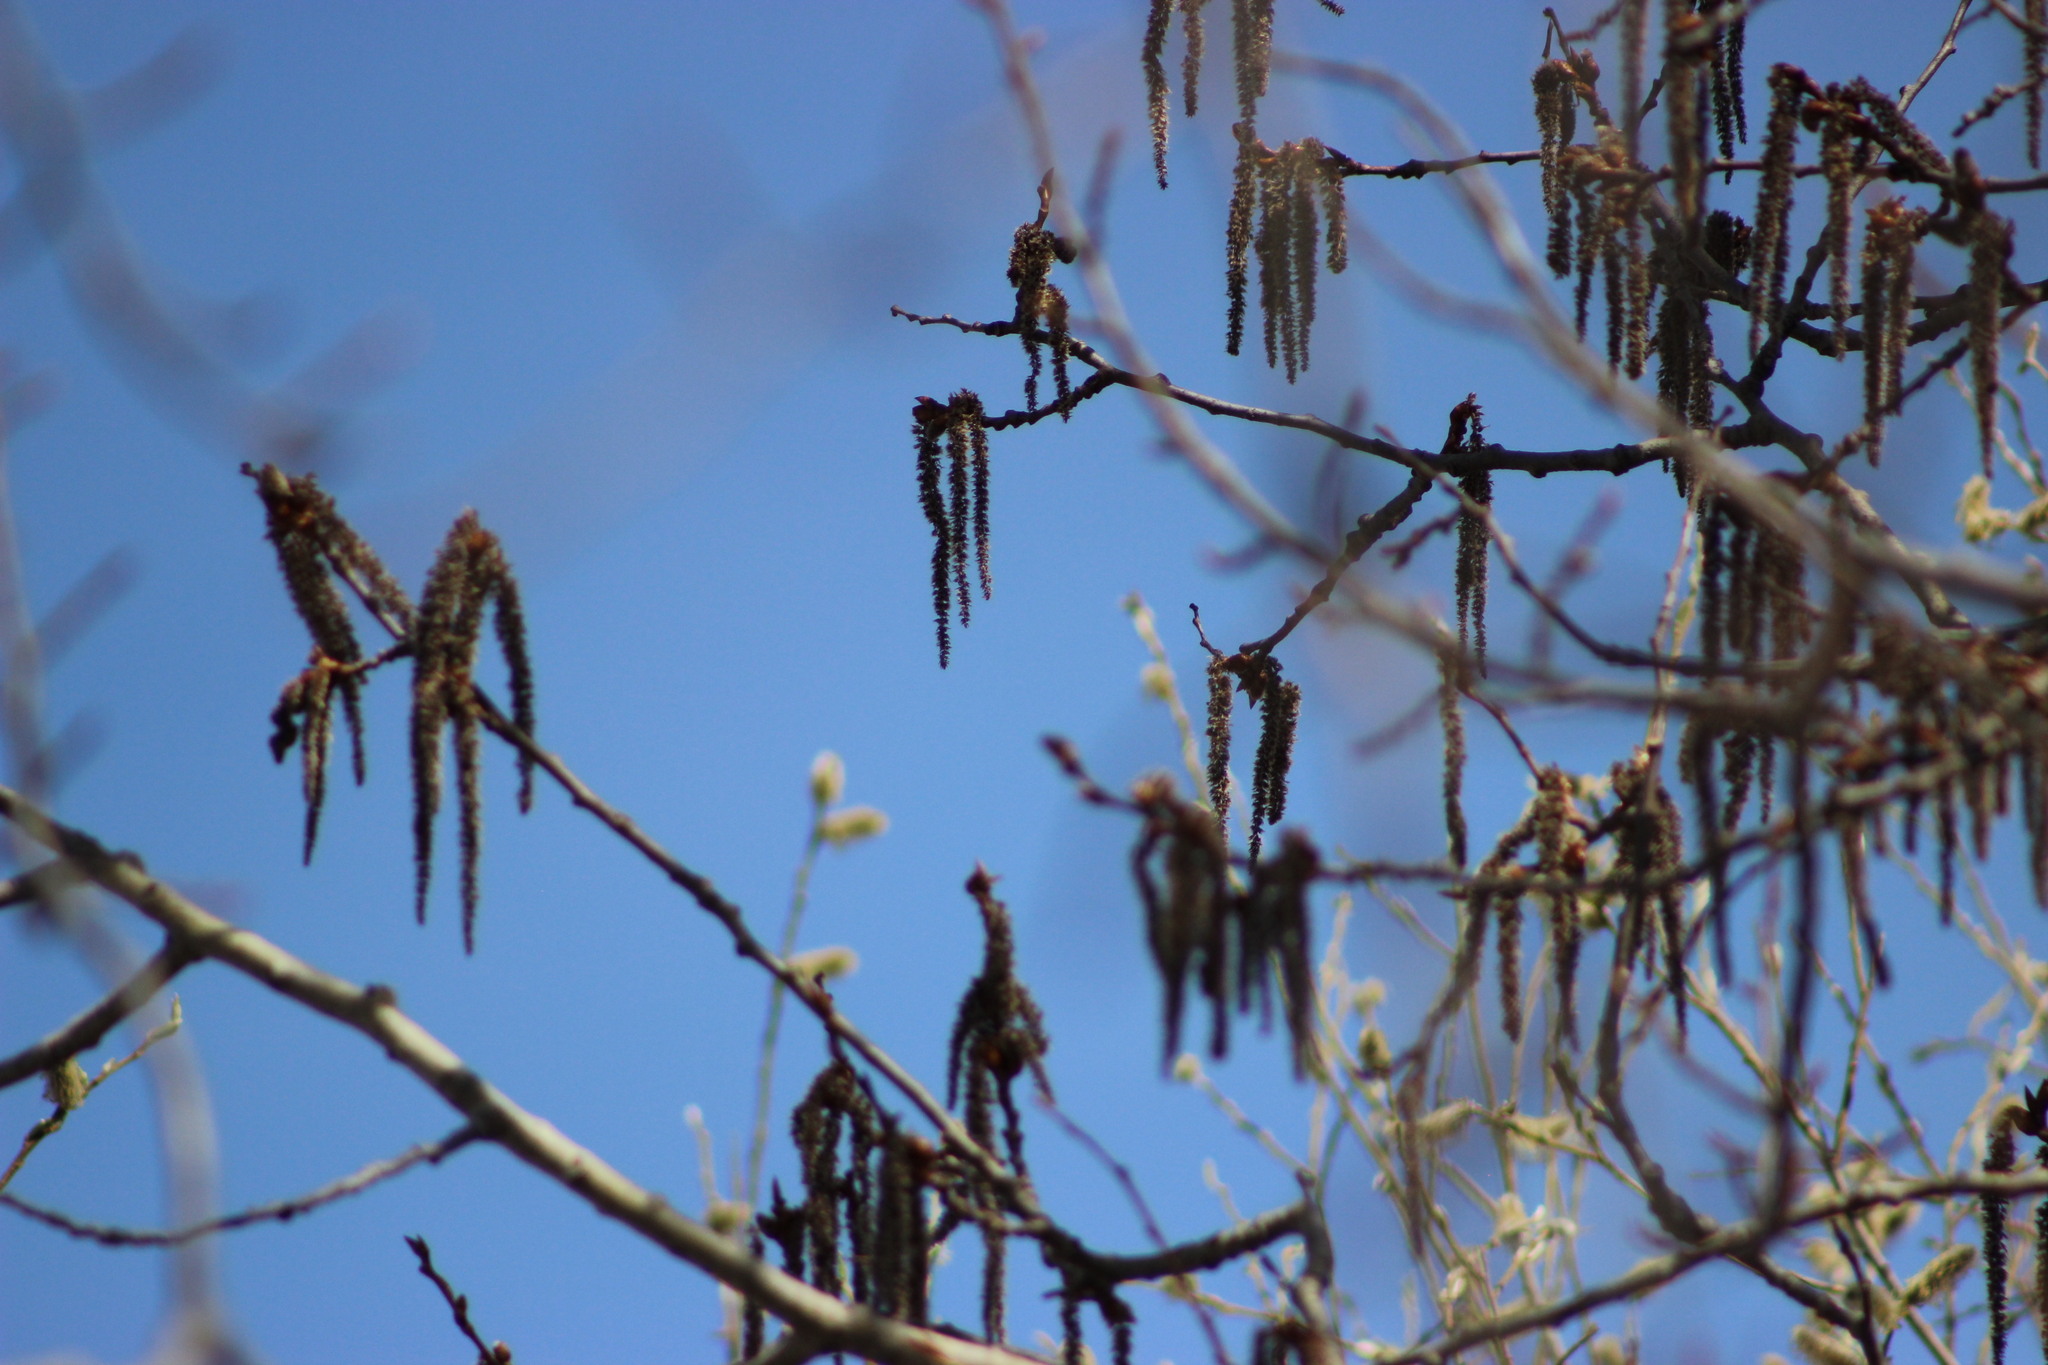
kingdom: Plantae
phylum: Tracheophyta
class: Magnoliopsida
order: Malpighiales
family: Salicaceae
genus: Populus
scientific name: Populus tremula
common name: European aspen
